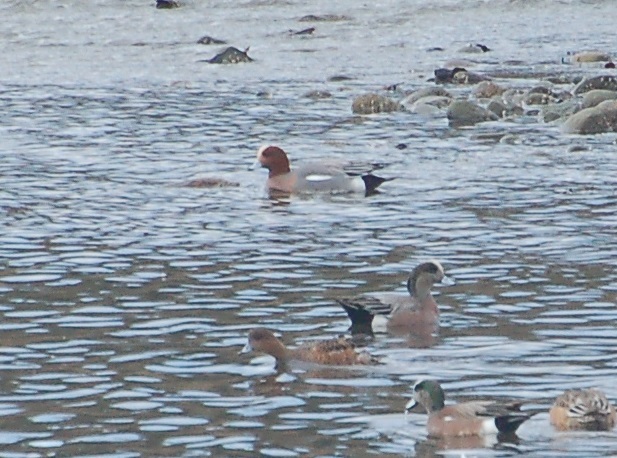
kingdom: Animalia
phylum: Chordata
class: Aves
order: Anseriformes
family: Anatidae
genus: Mareca
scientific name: Mareca penelope
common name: Eurasian wigeon
